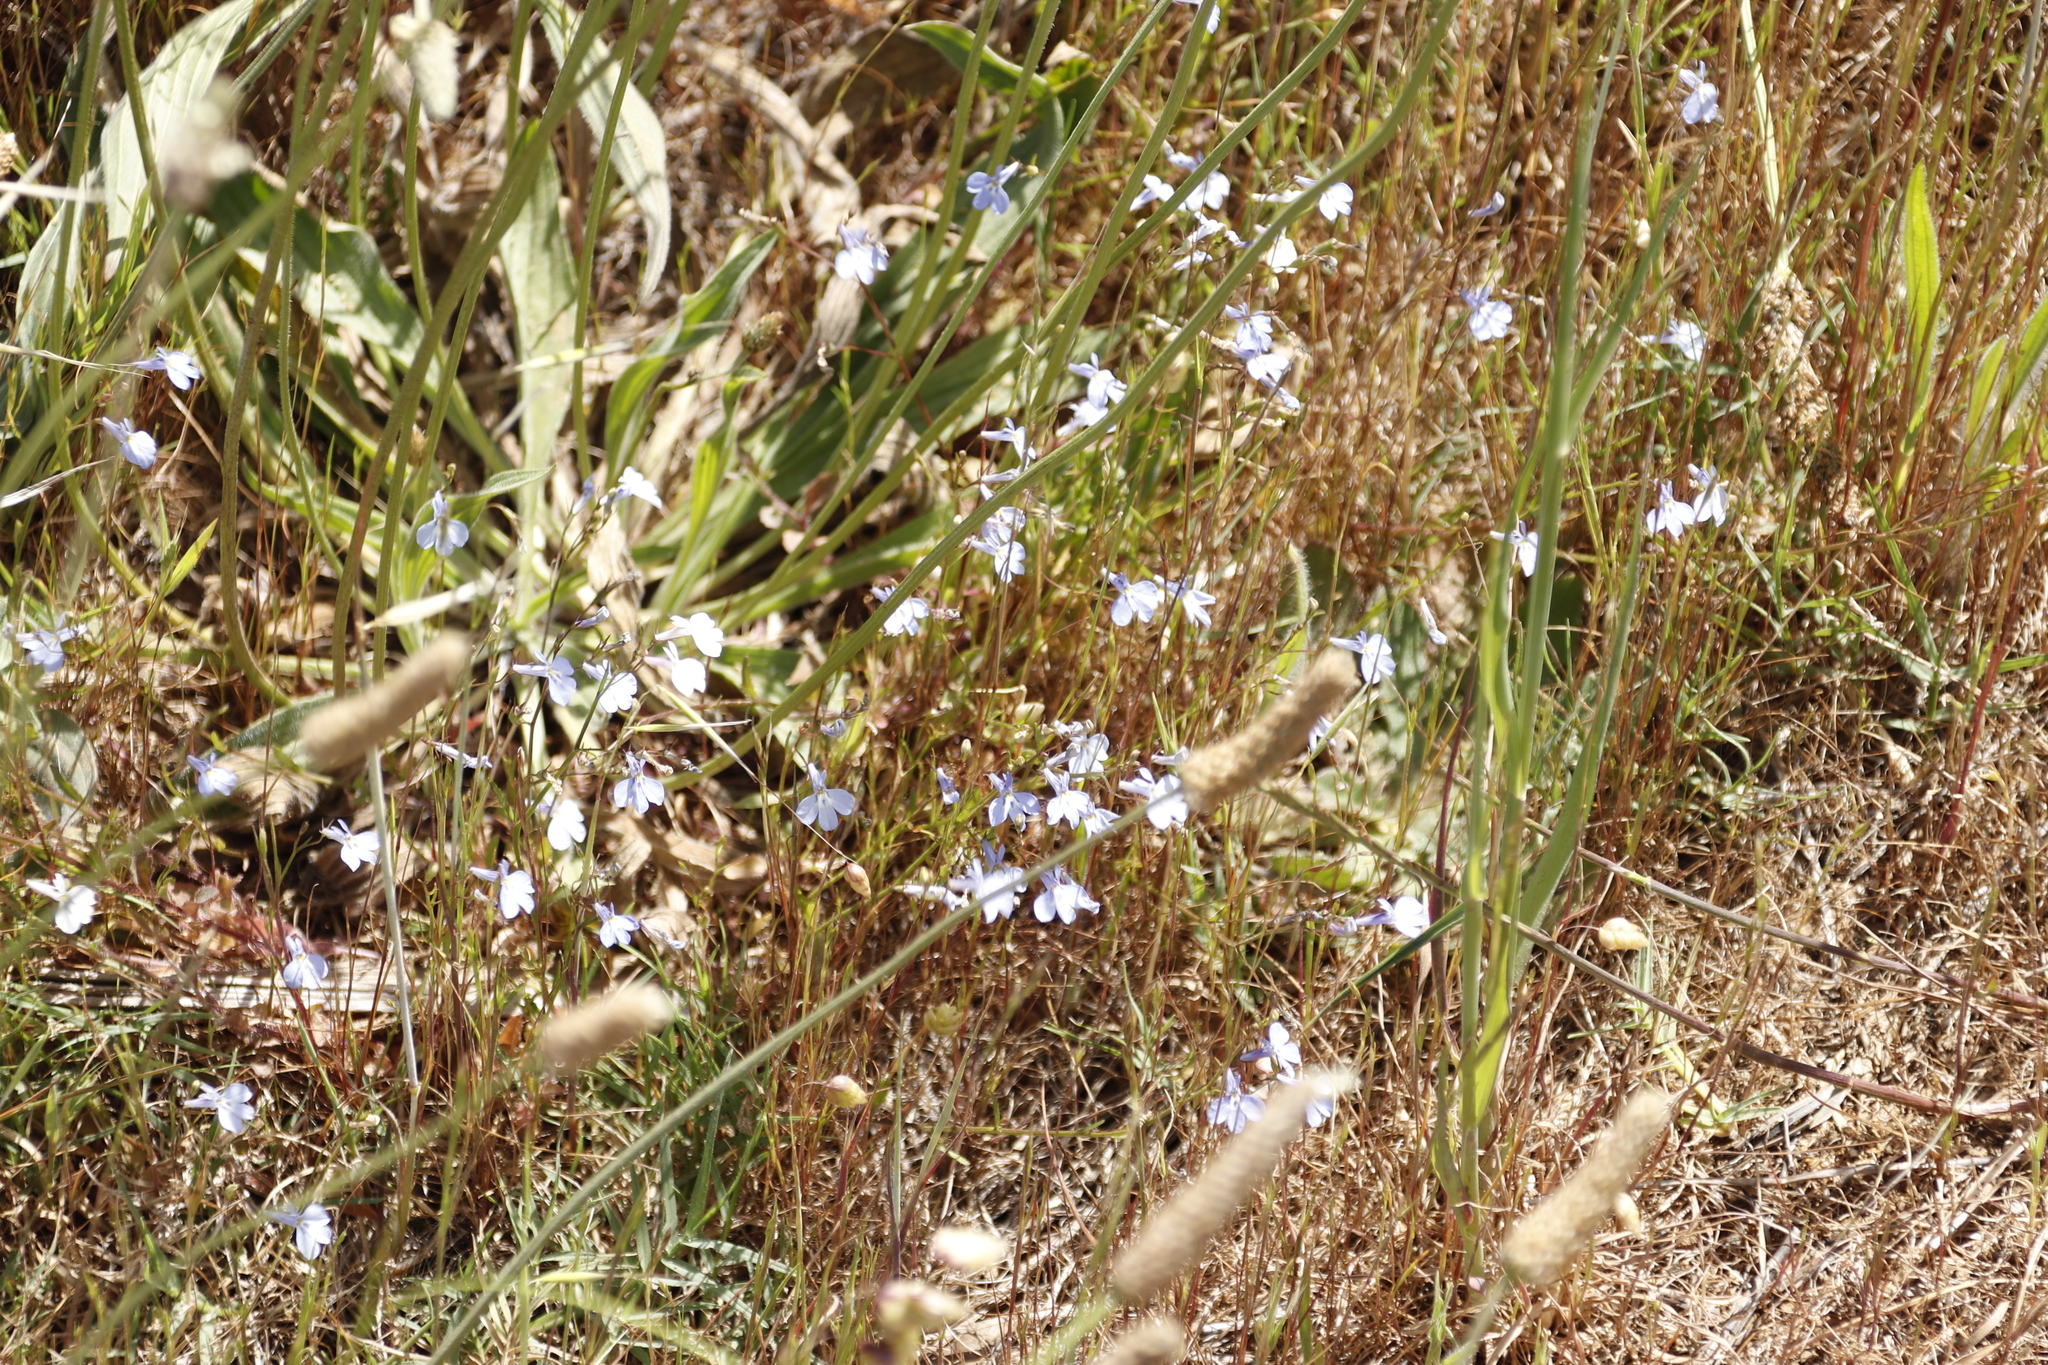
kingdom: Plantae
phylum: Tracheophyta
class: Magnoliopsida
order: Asterales
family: Campanulaceae
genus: Lobelia
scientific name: Lobelia erinus
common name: Edging lobelia
